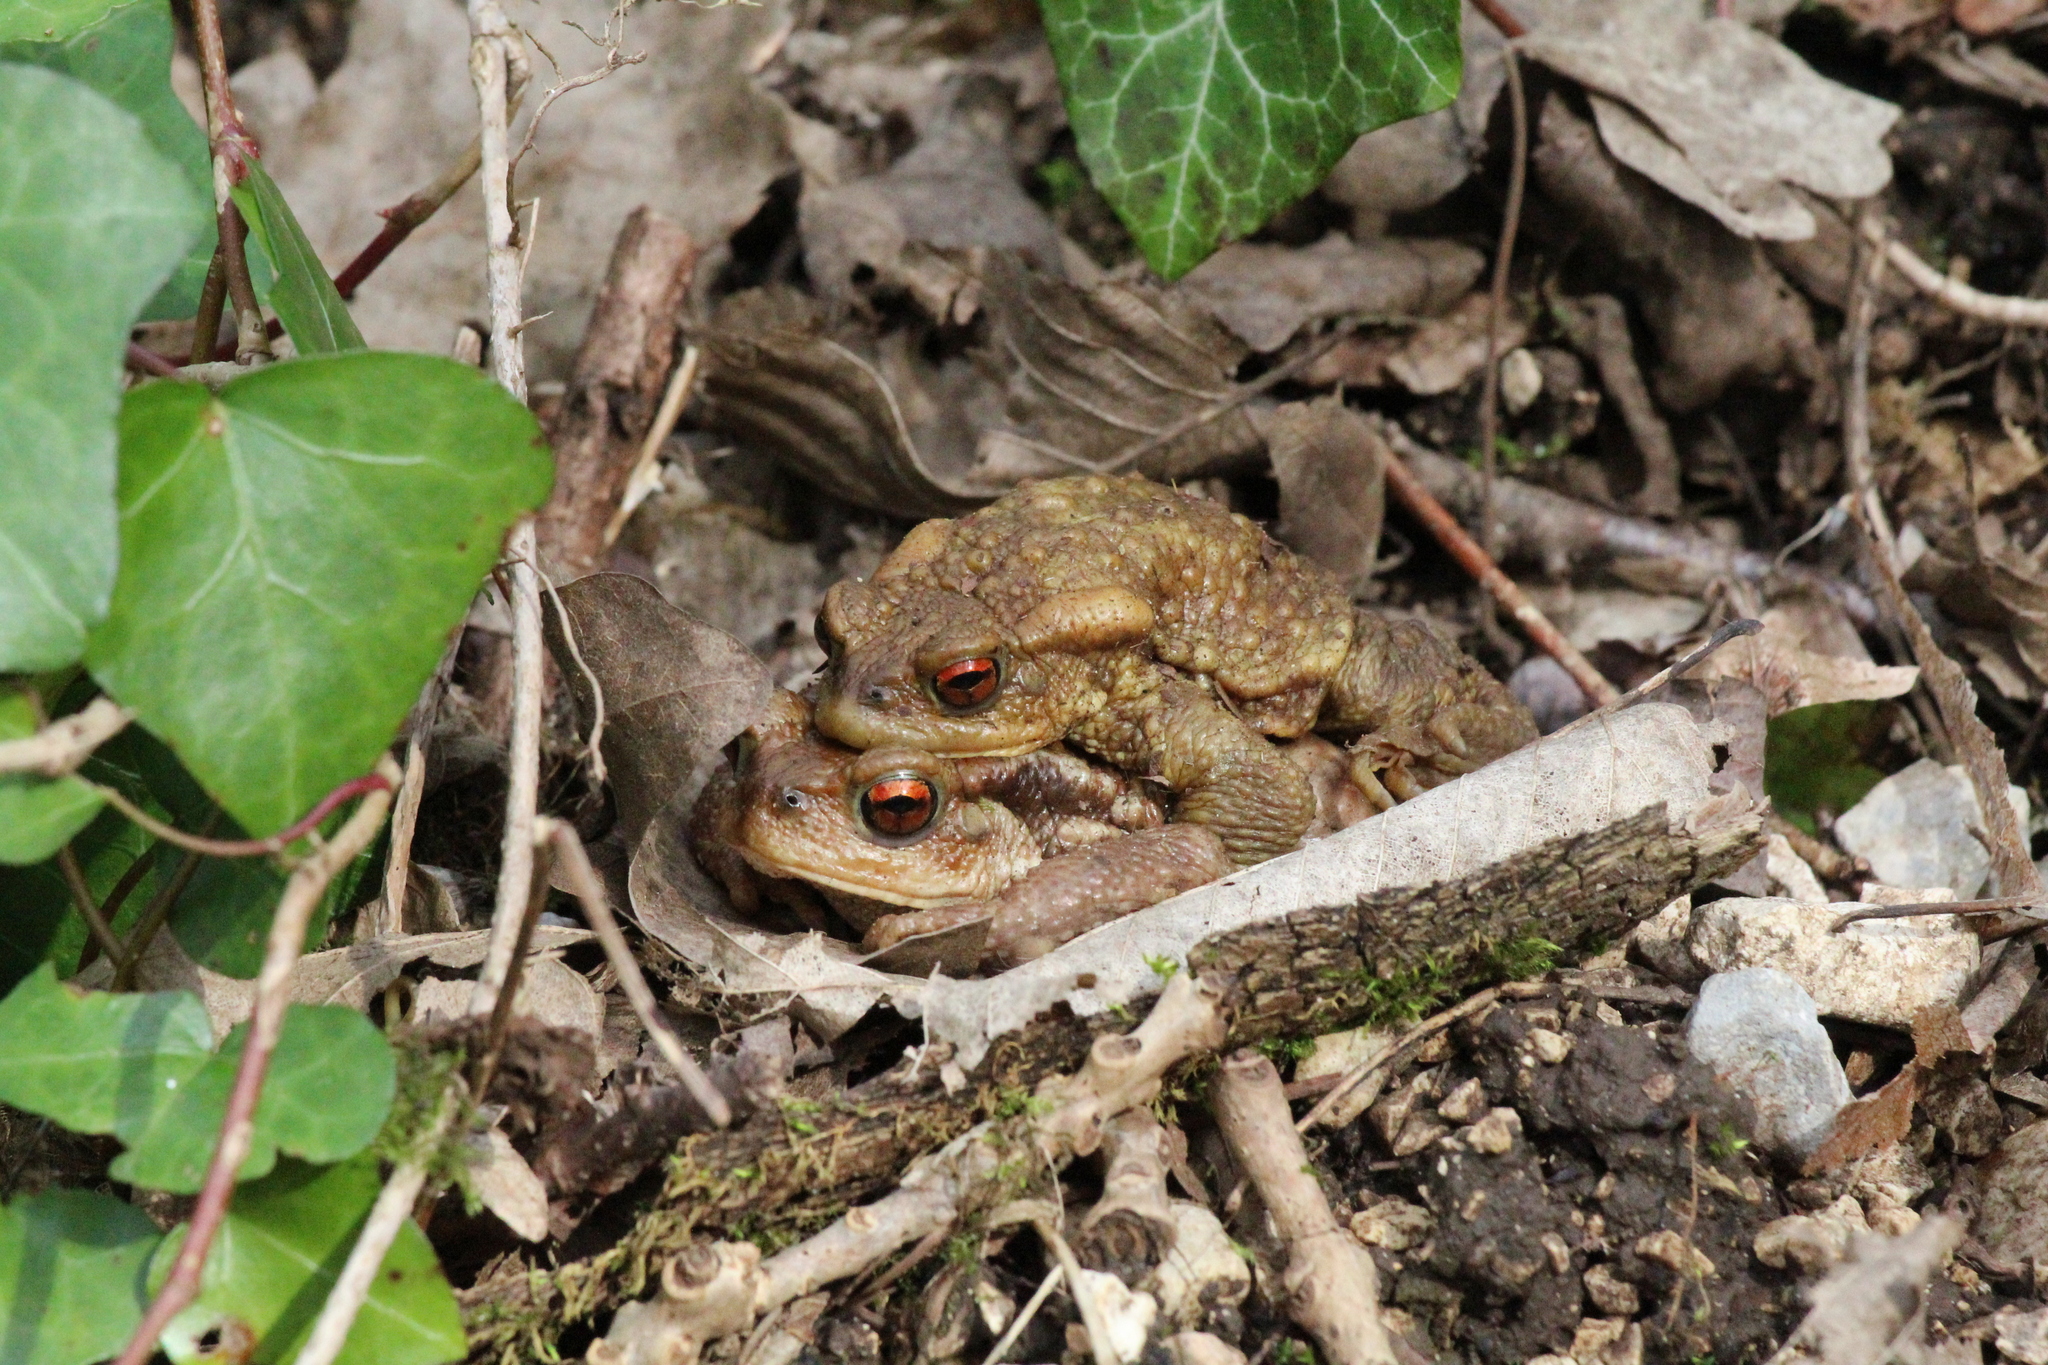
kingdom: Animalia
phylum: Chordata
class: Amphibia
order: Anura
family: Bufonidae
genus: Bufo
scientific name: Bufo spinosus
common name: Western common toad
